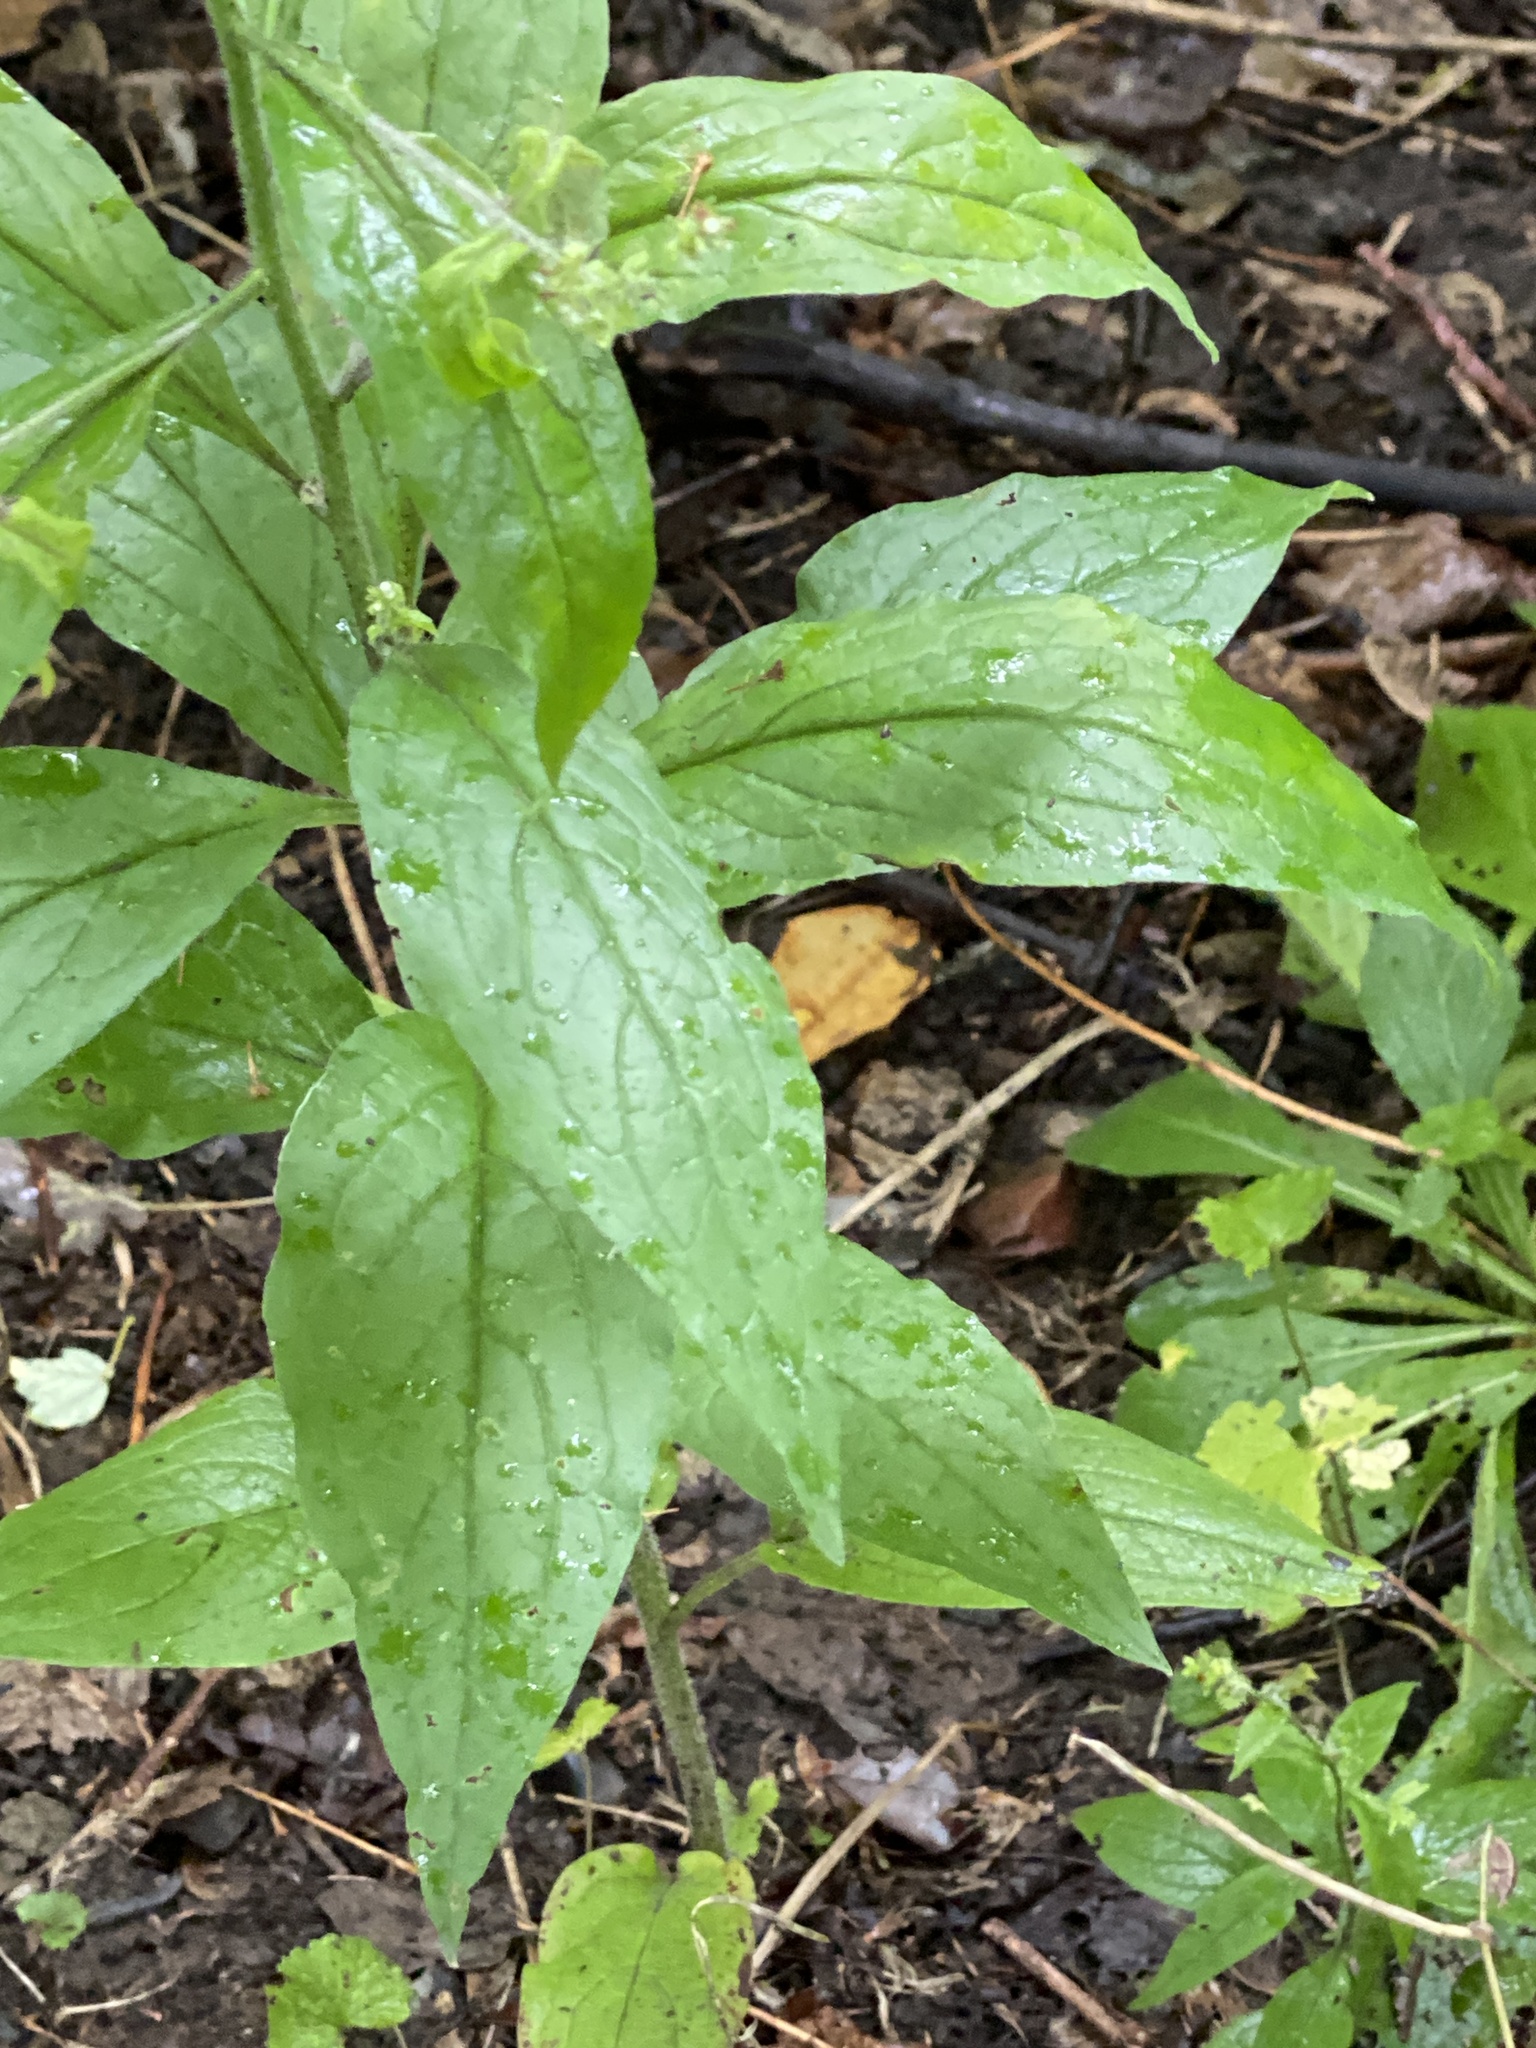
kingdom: Plantae
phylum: Tracheophyta
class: Magnoliopsida
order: Boraginales
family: Boraginaceae
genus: Hackelia
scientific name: Hackelia virginiana
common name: Beggar's-lice
